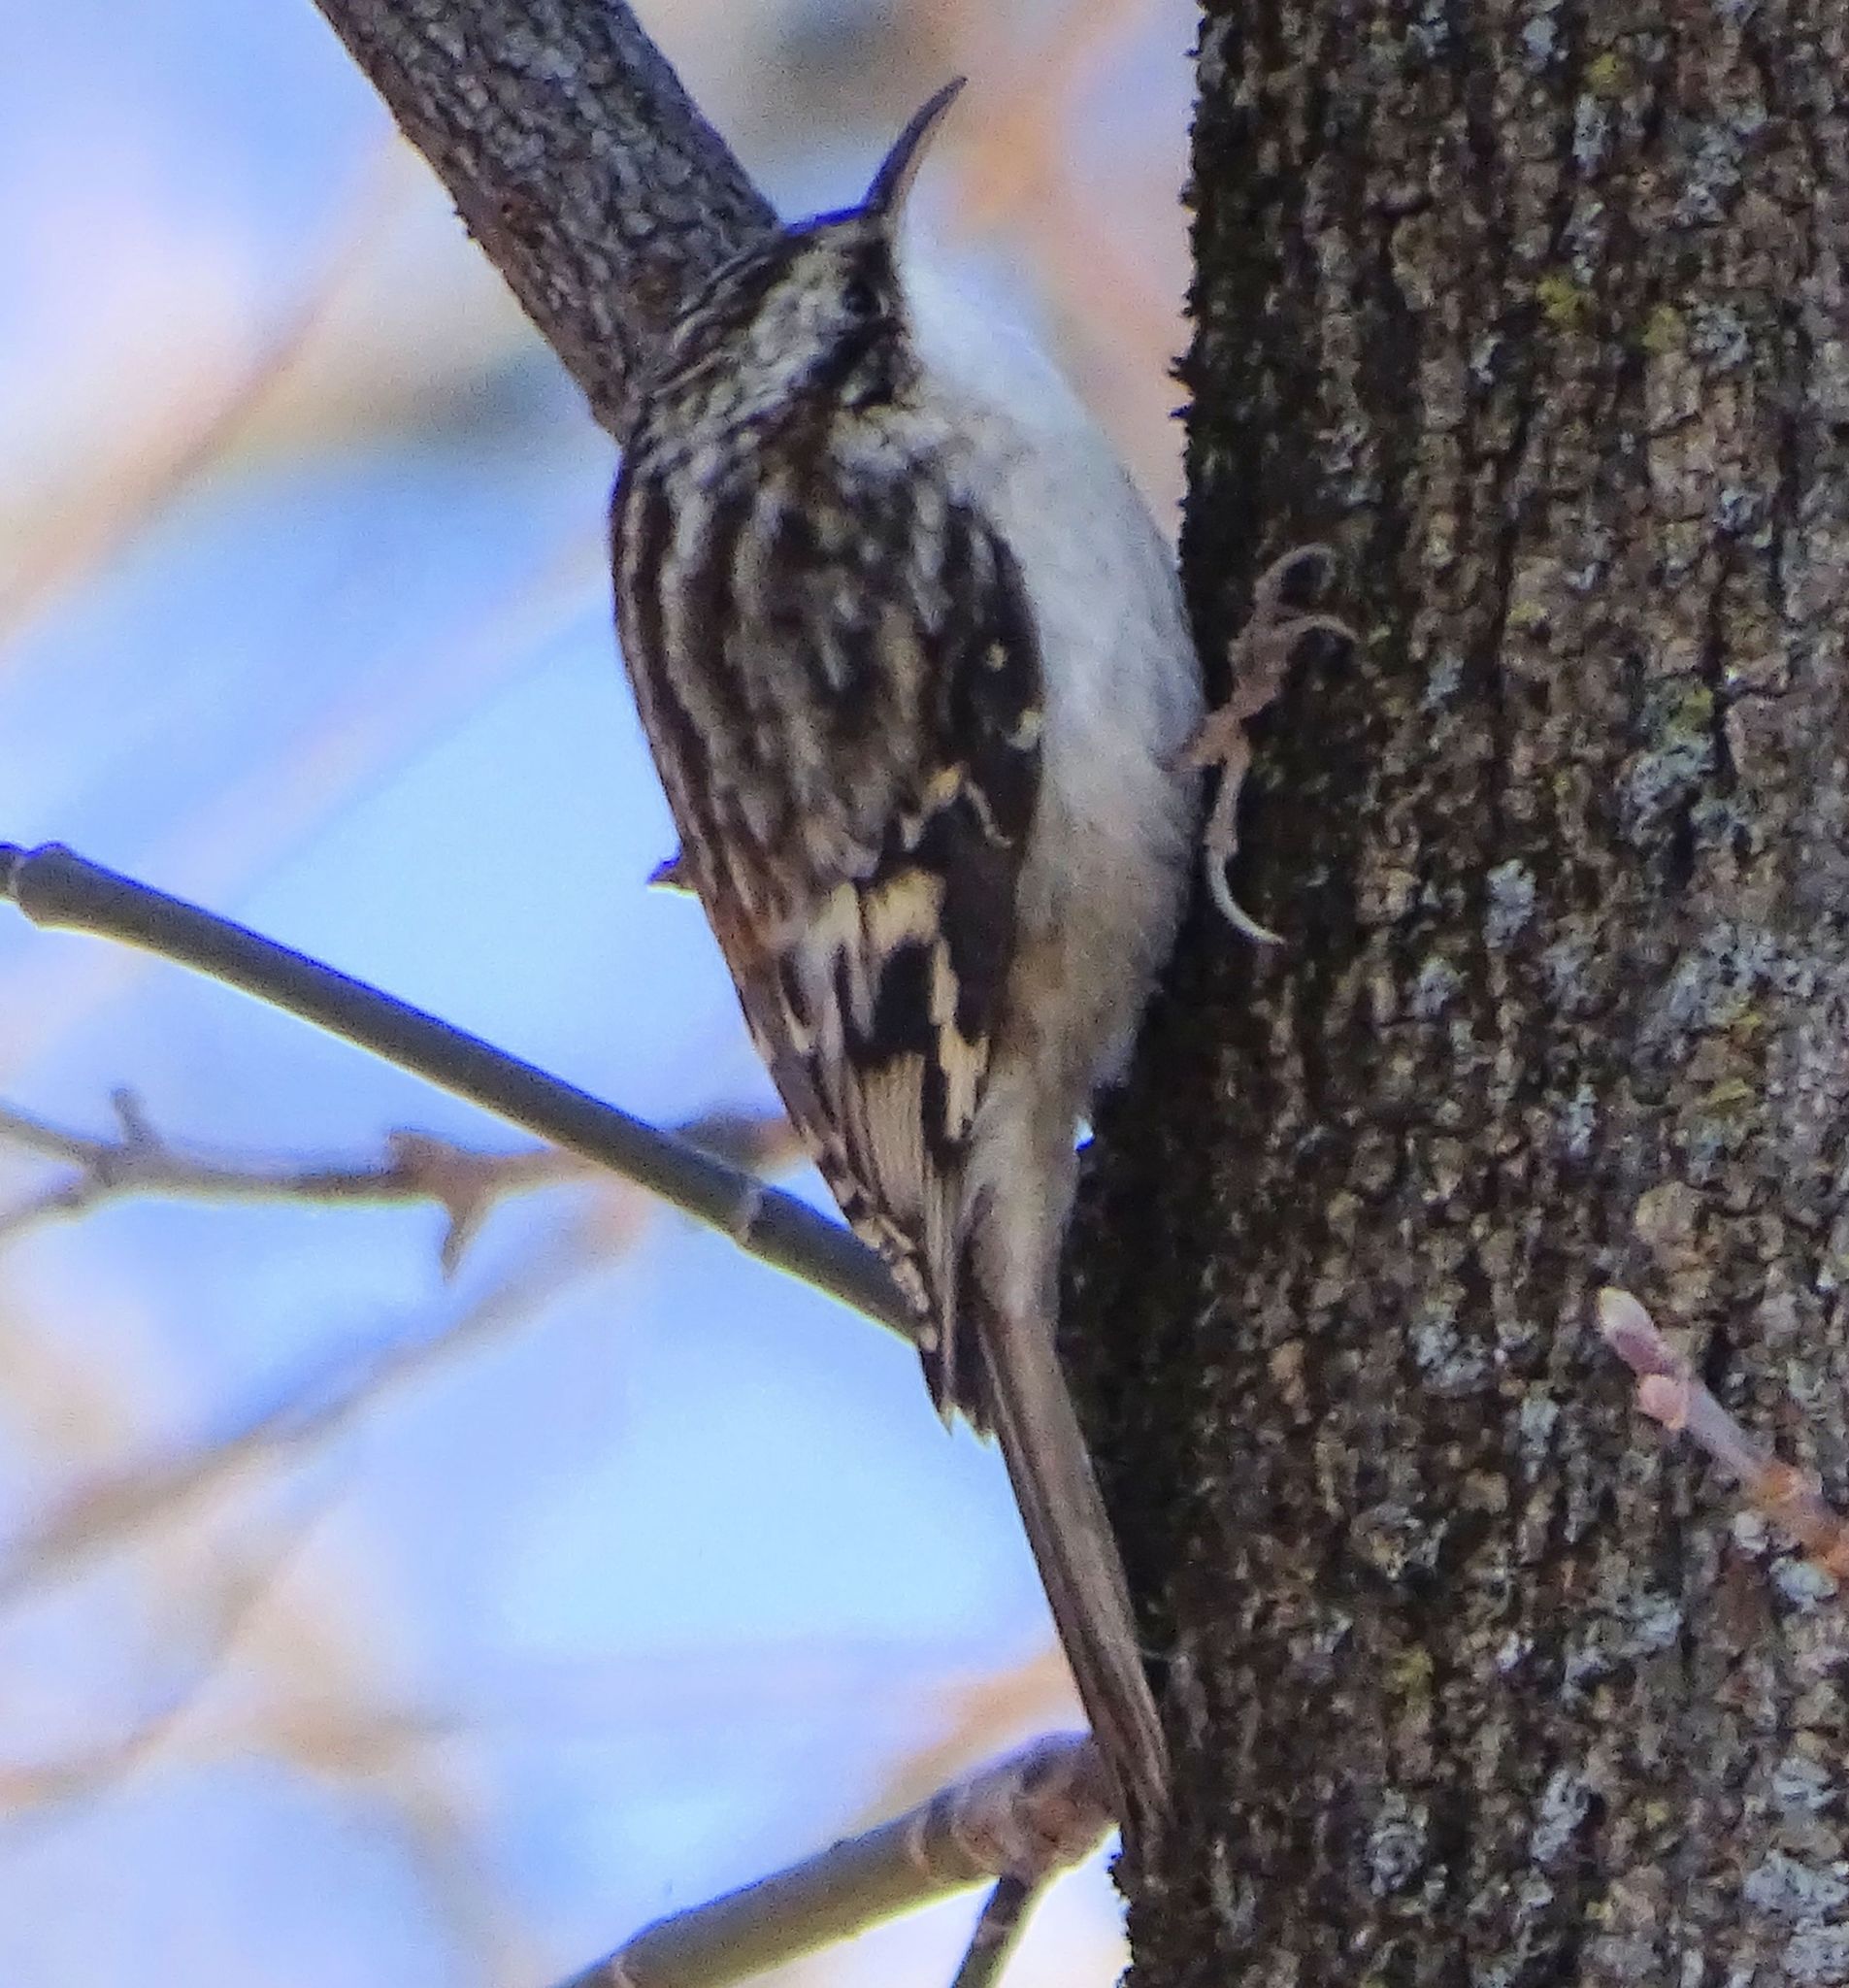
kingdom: Animalia
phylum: Chordata
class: Aves
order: Passeriformes
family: Certhiidae
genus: Certhia
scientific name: Certhia americana
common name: Brown creeper
